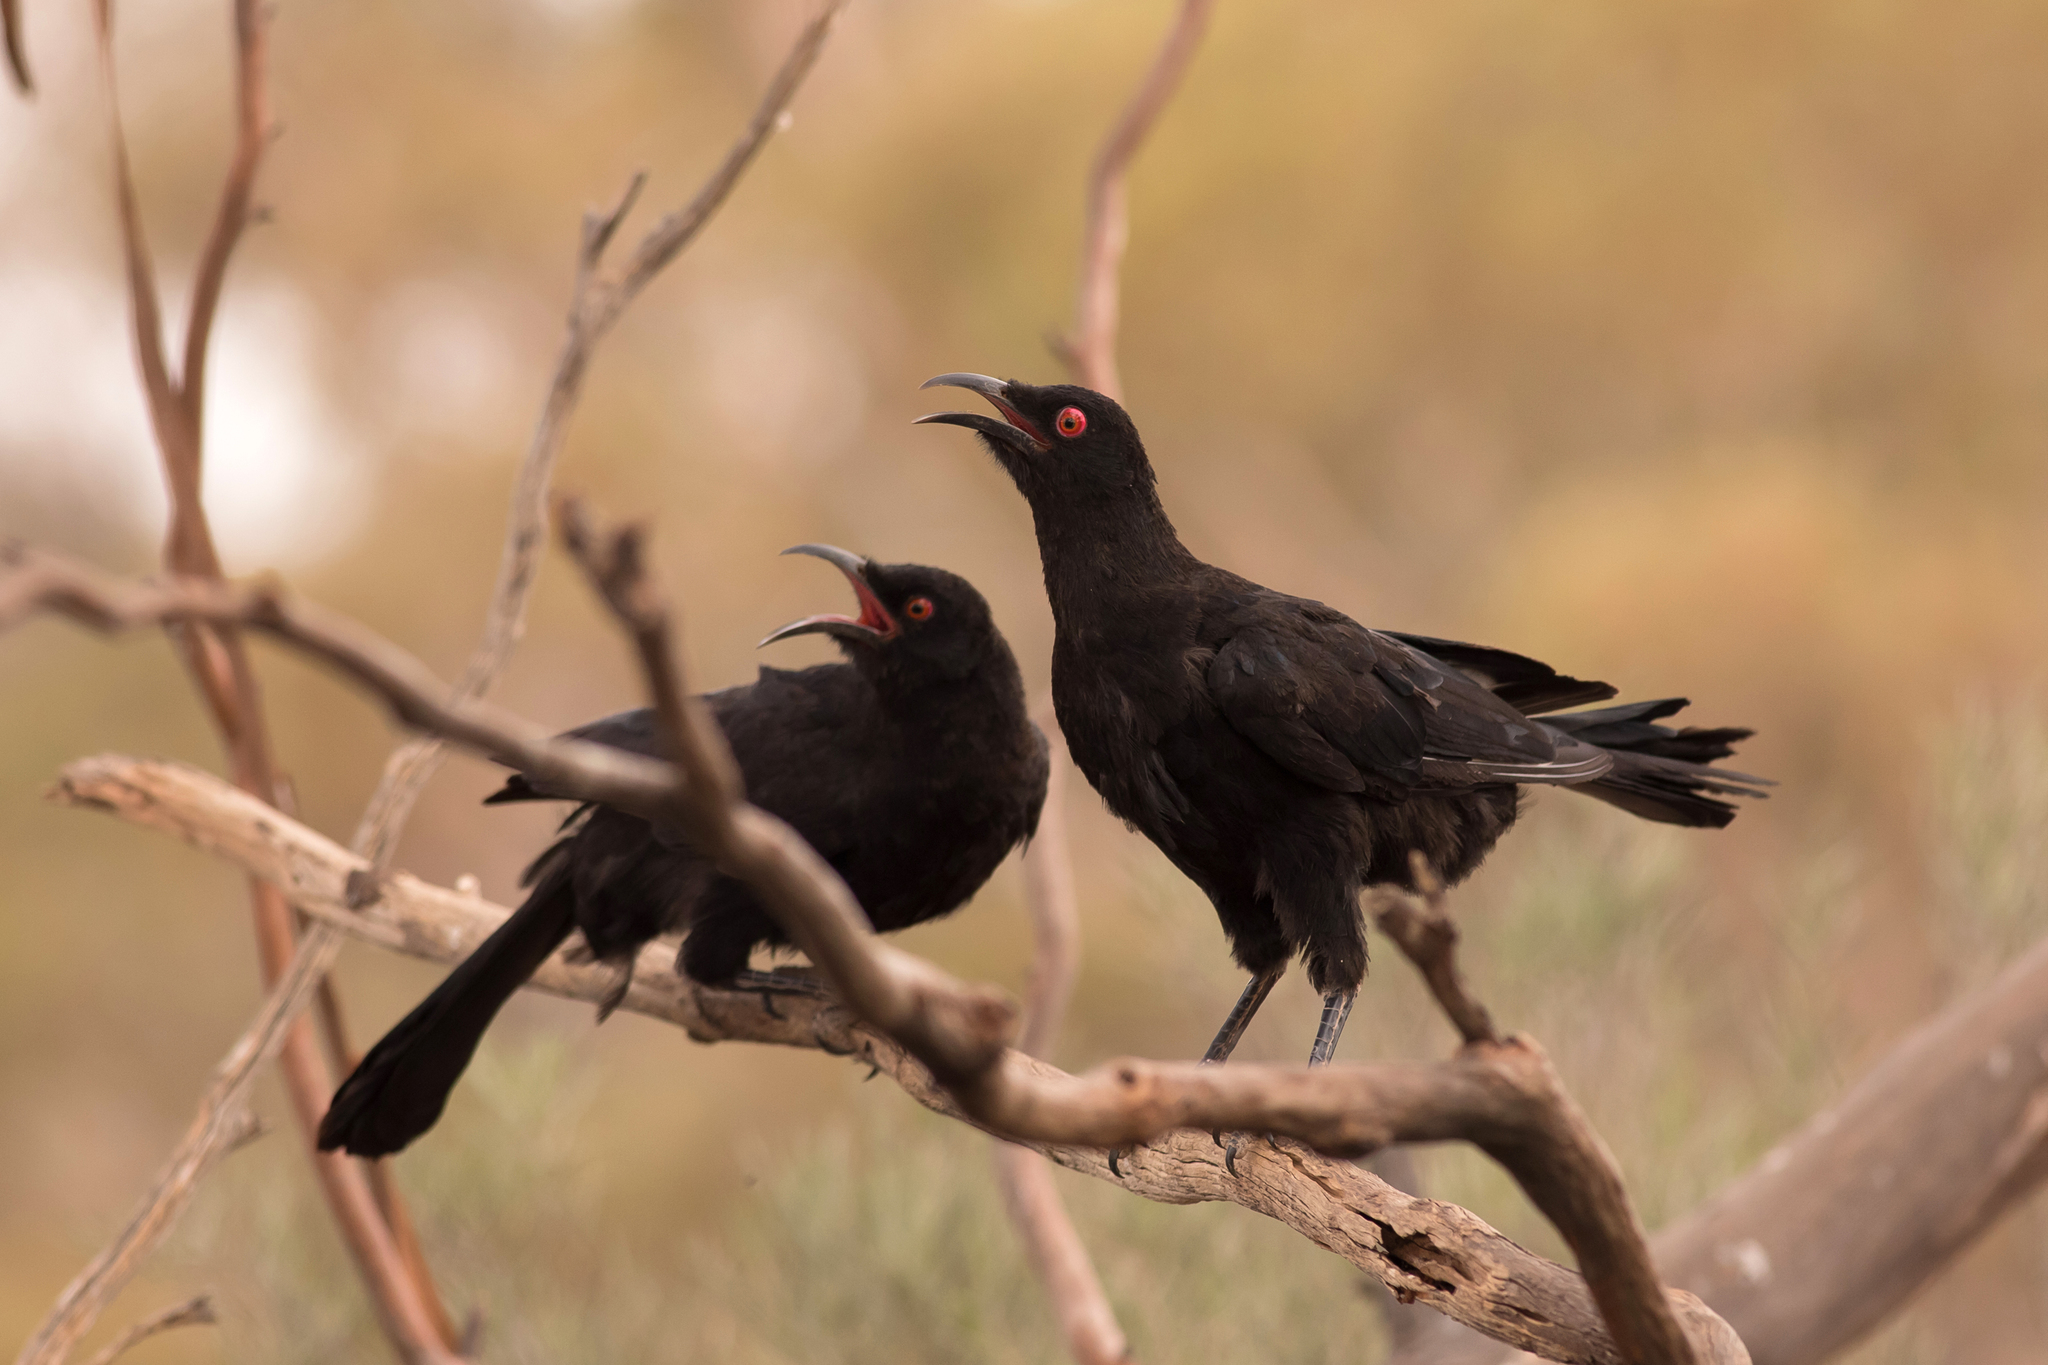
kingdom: Animalia
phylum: Chordata
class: Aves
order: Passeriformes
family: Corcoracidae
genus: Corcorax
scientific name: Corcorax melanoramphos
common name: White-winged chough
